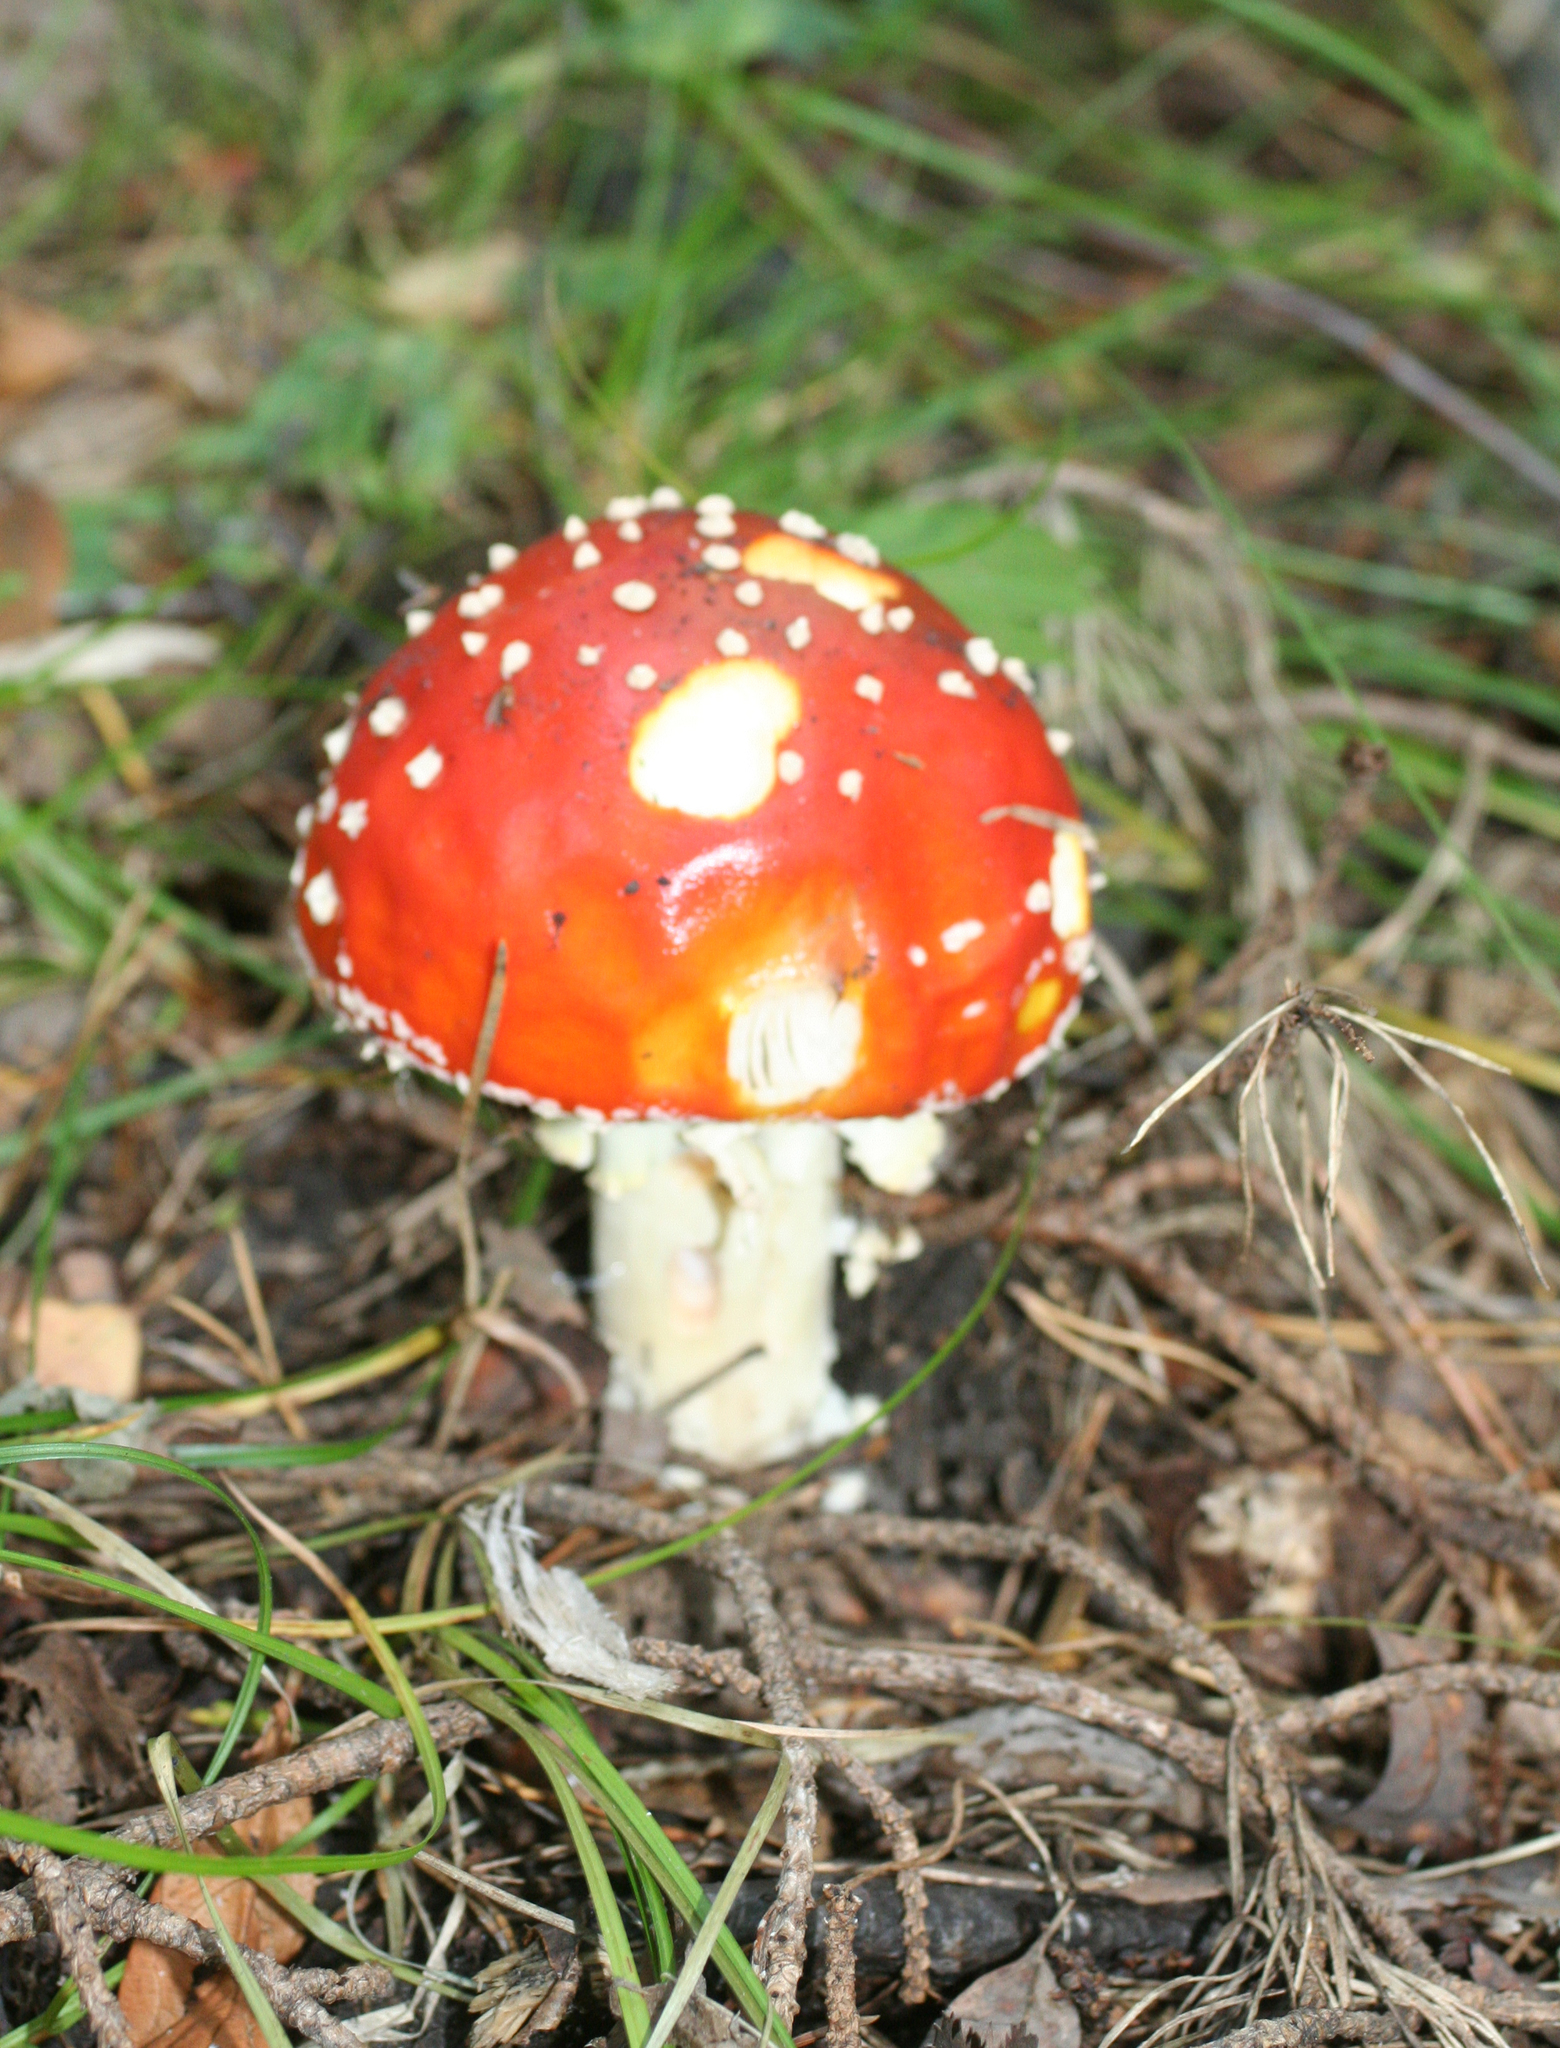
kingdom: Fungi
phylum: Basidiomycota
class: Agaricomycetes
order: Agaricales
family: Amanitaceae
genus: Amanita
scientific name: Amanita muscaria
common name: Fly agaric
